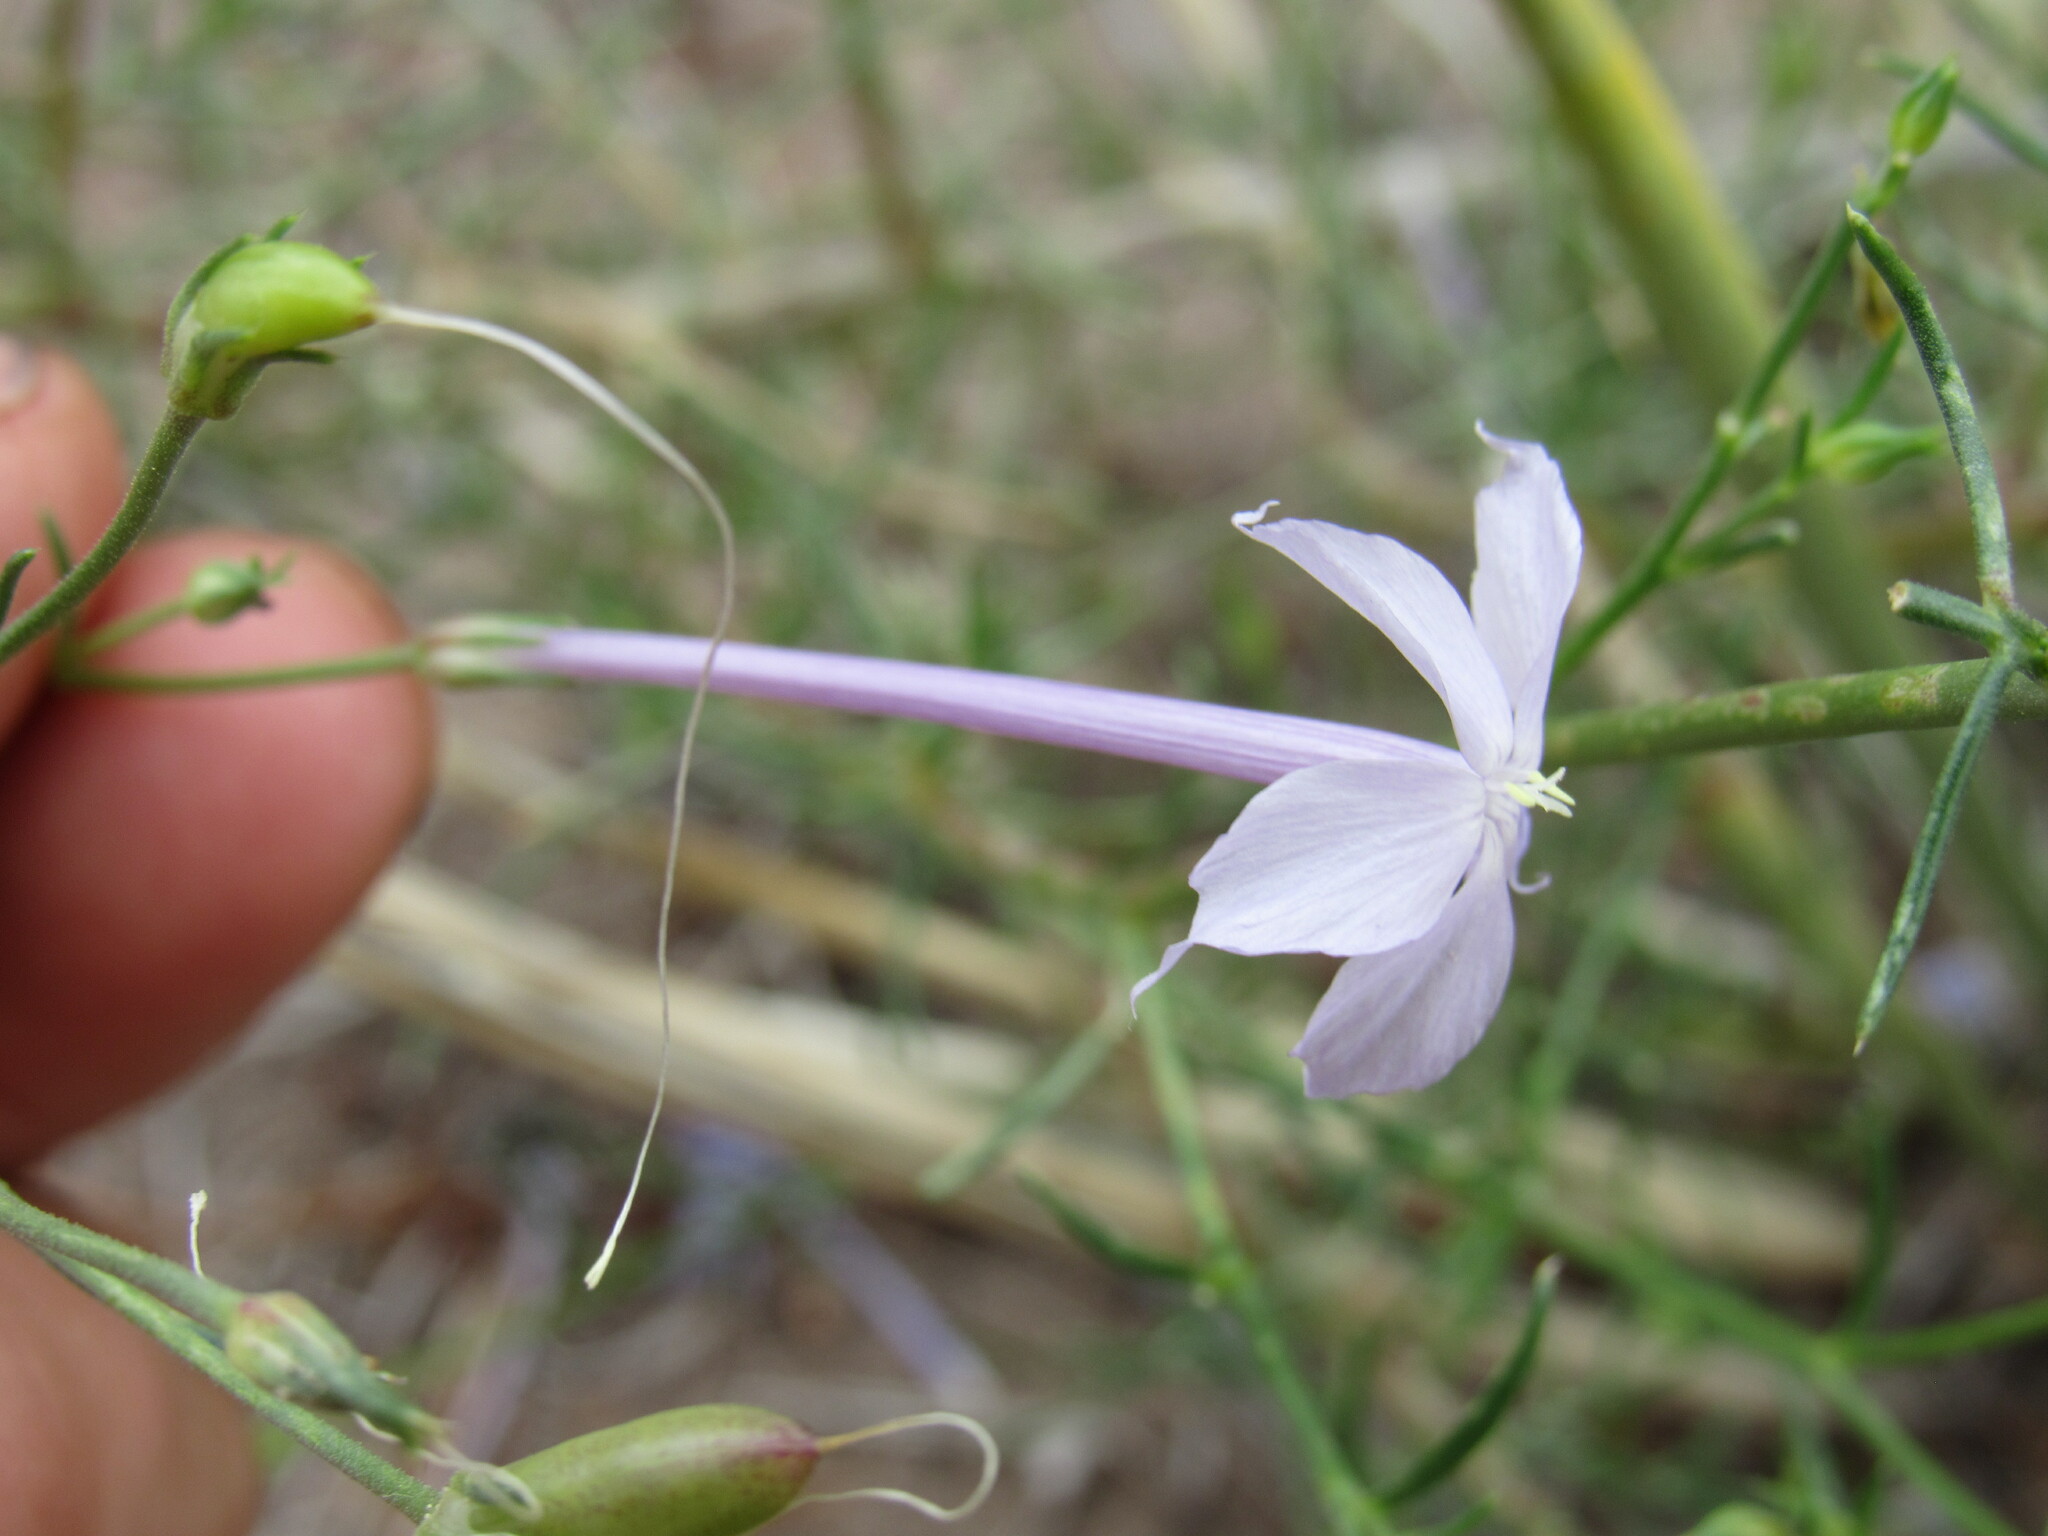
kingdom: Plantae
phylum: Tracheophyta
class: Magnoliopsida
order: Ericales
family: Polemoniaceae
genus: Ipomopsis
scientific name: Ipomopsis longiflora
